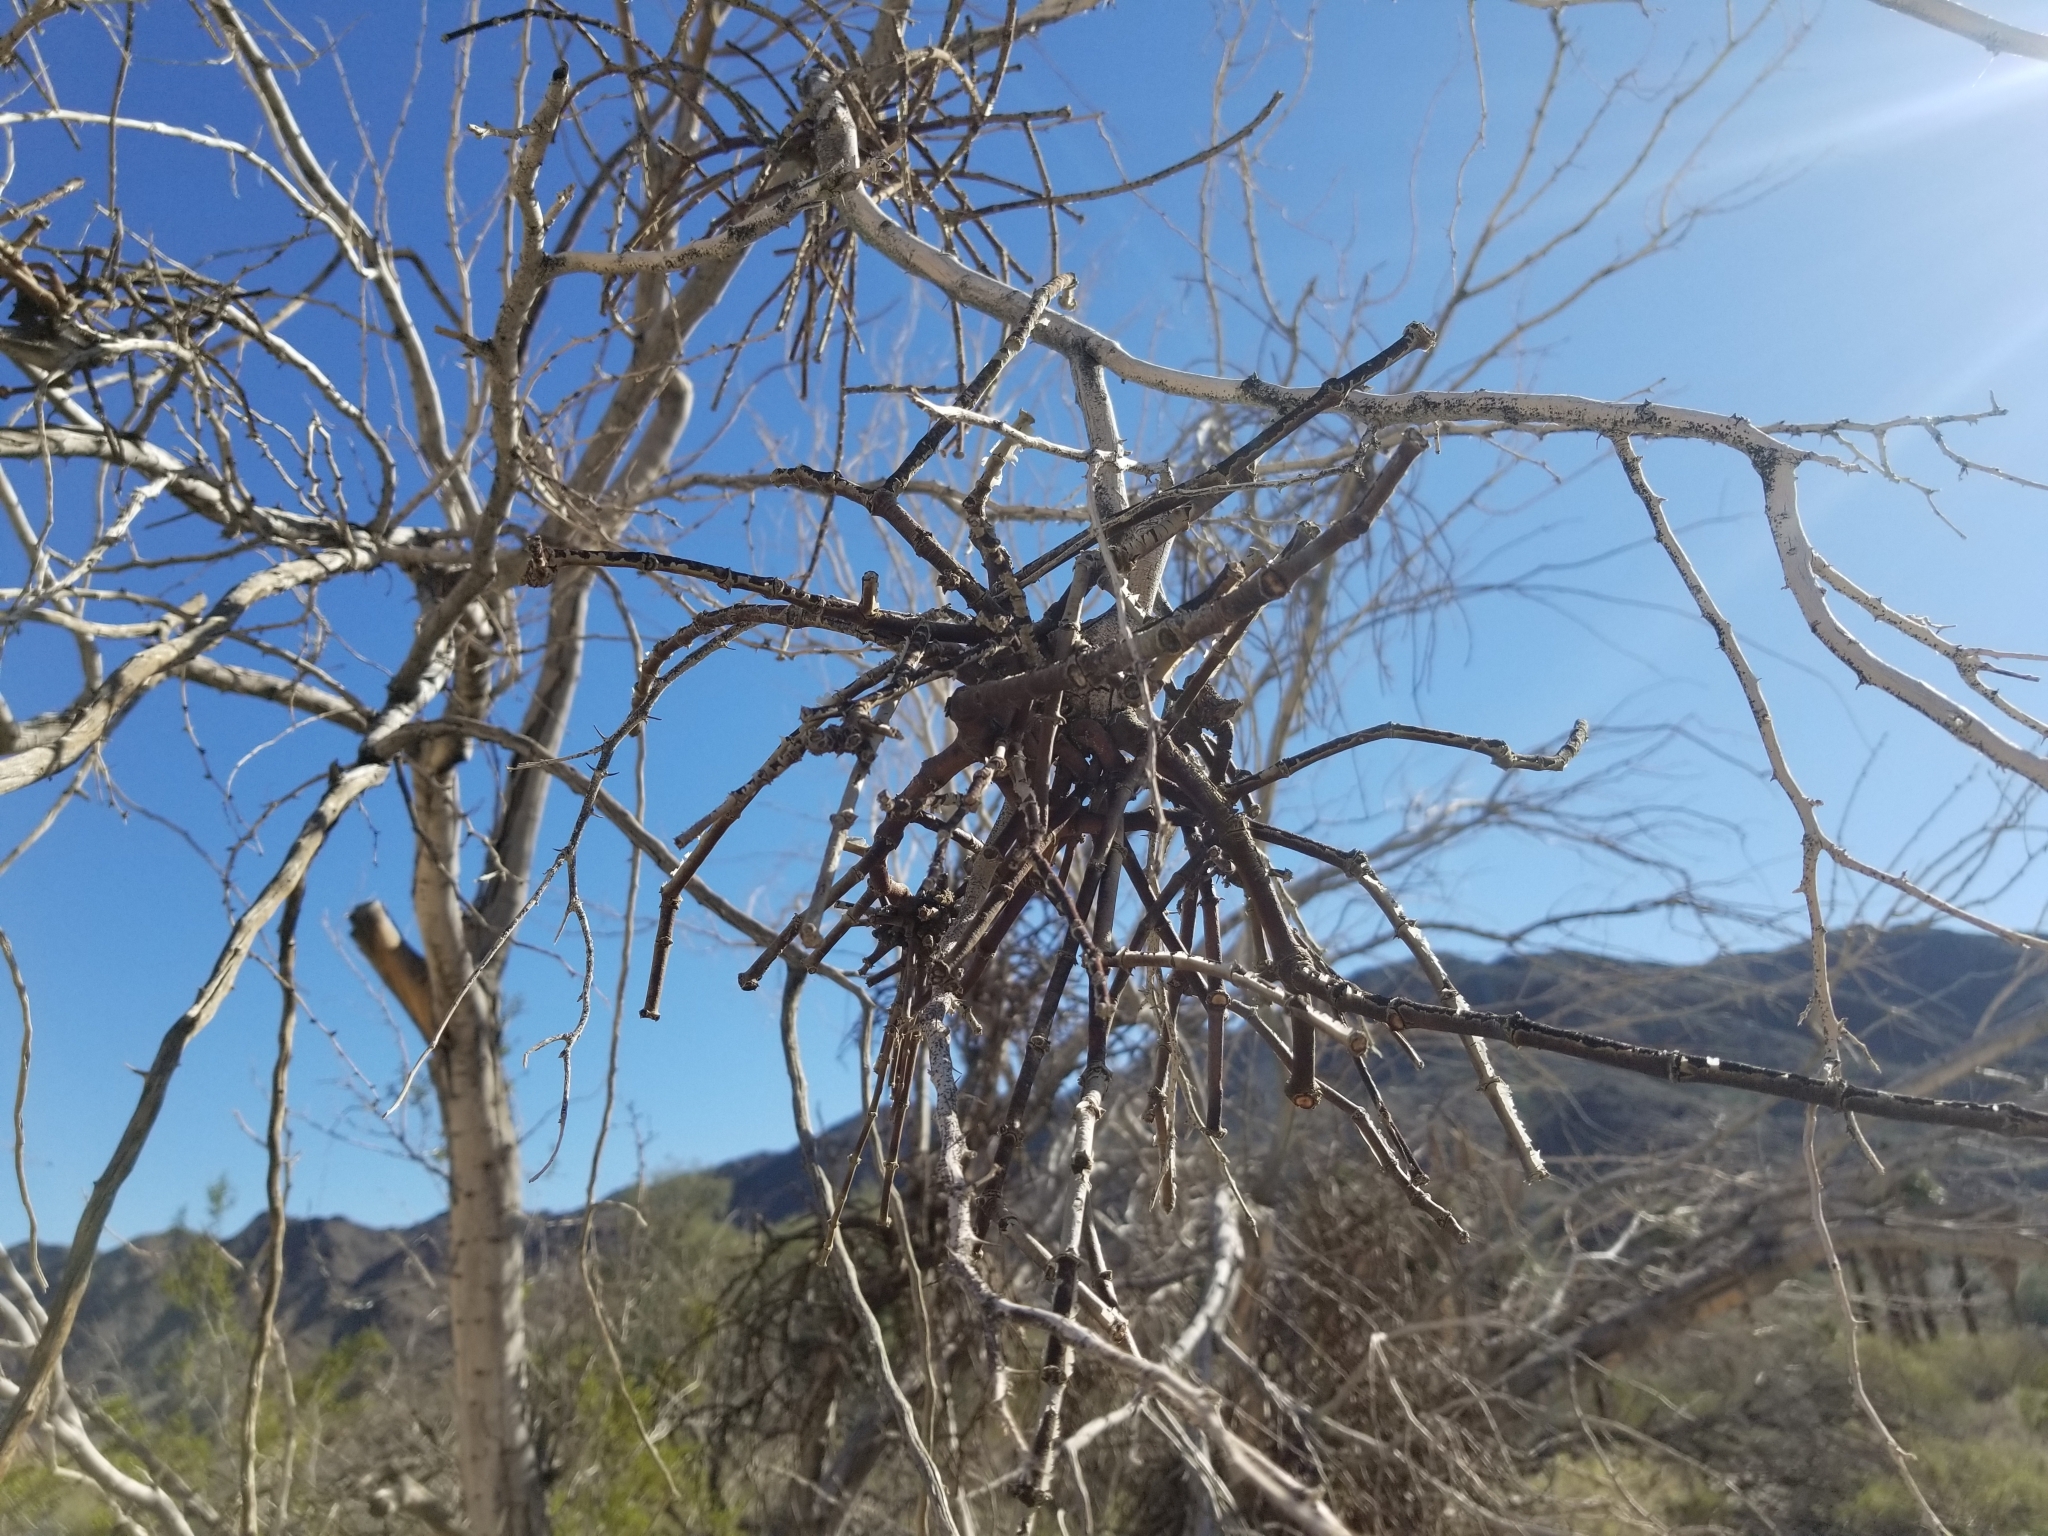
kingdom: Plantae
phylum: Tracheophyta
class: Magnoliopsida
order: Santalales
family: Viscaceae
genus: Phoradendron
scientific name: Phoradendron californicum
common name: Acacia mistletoe
